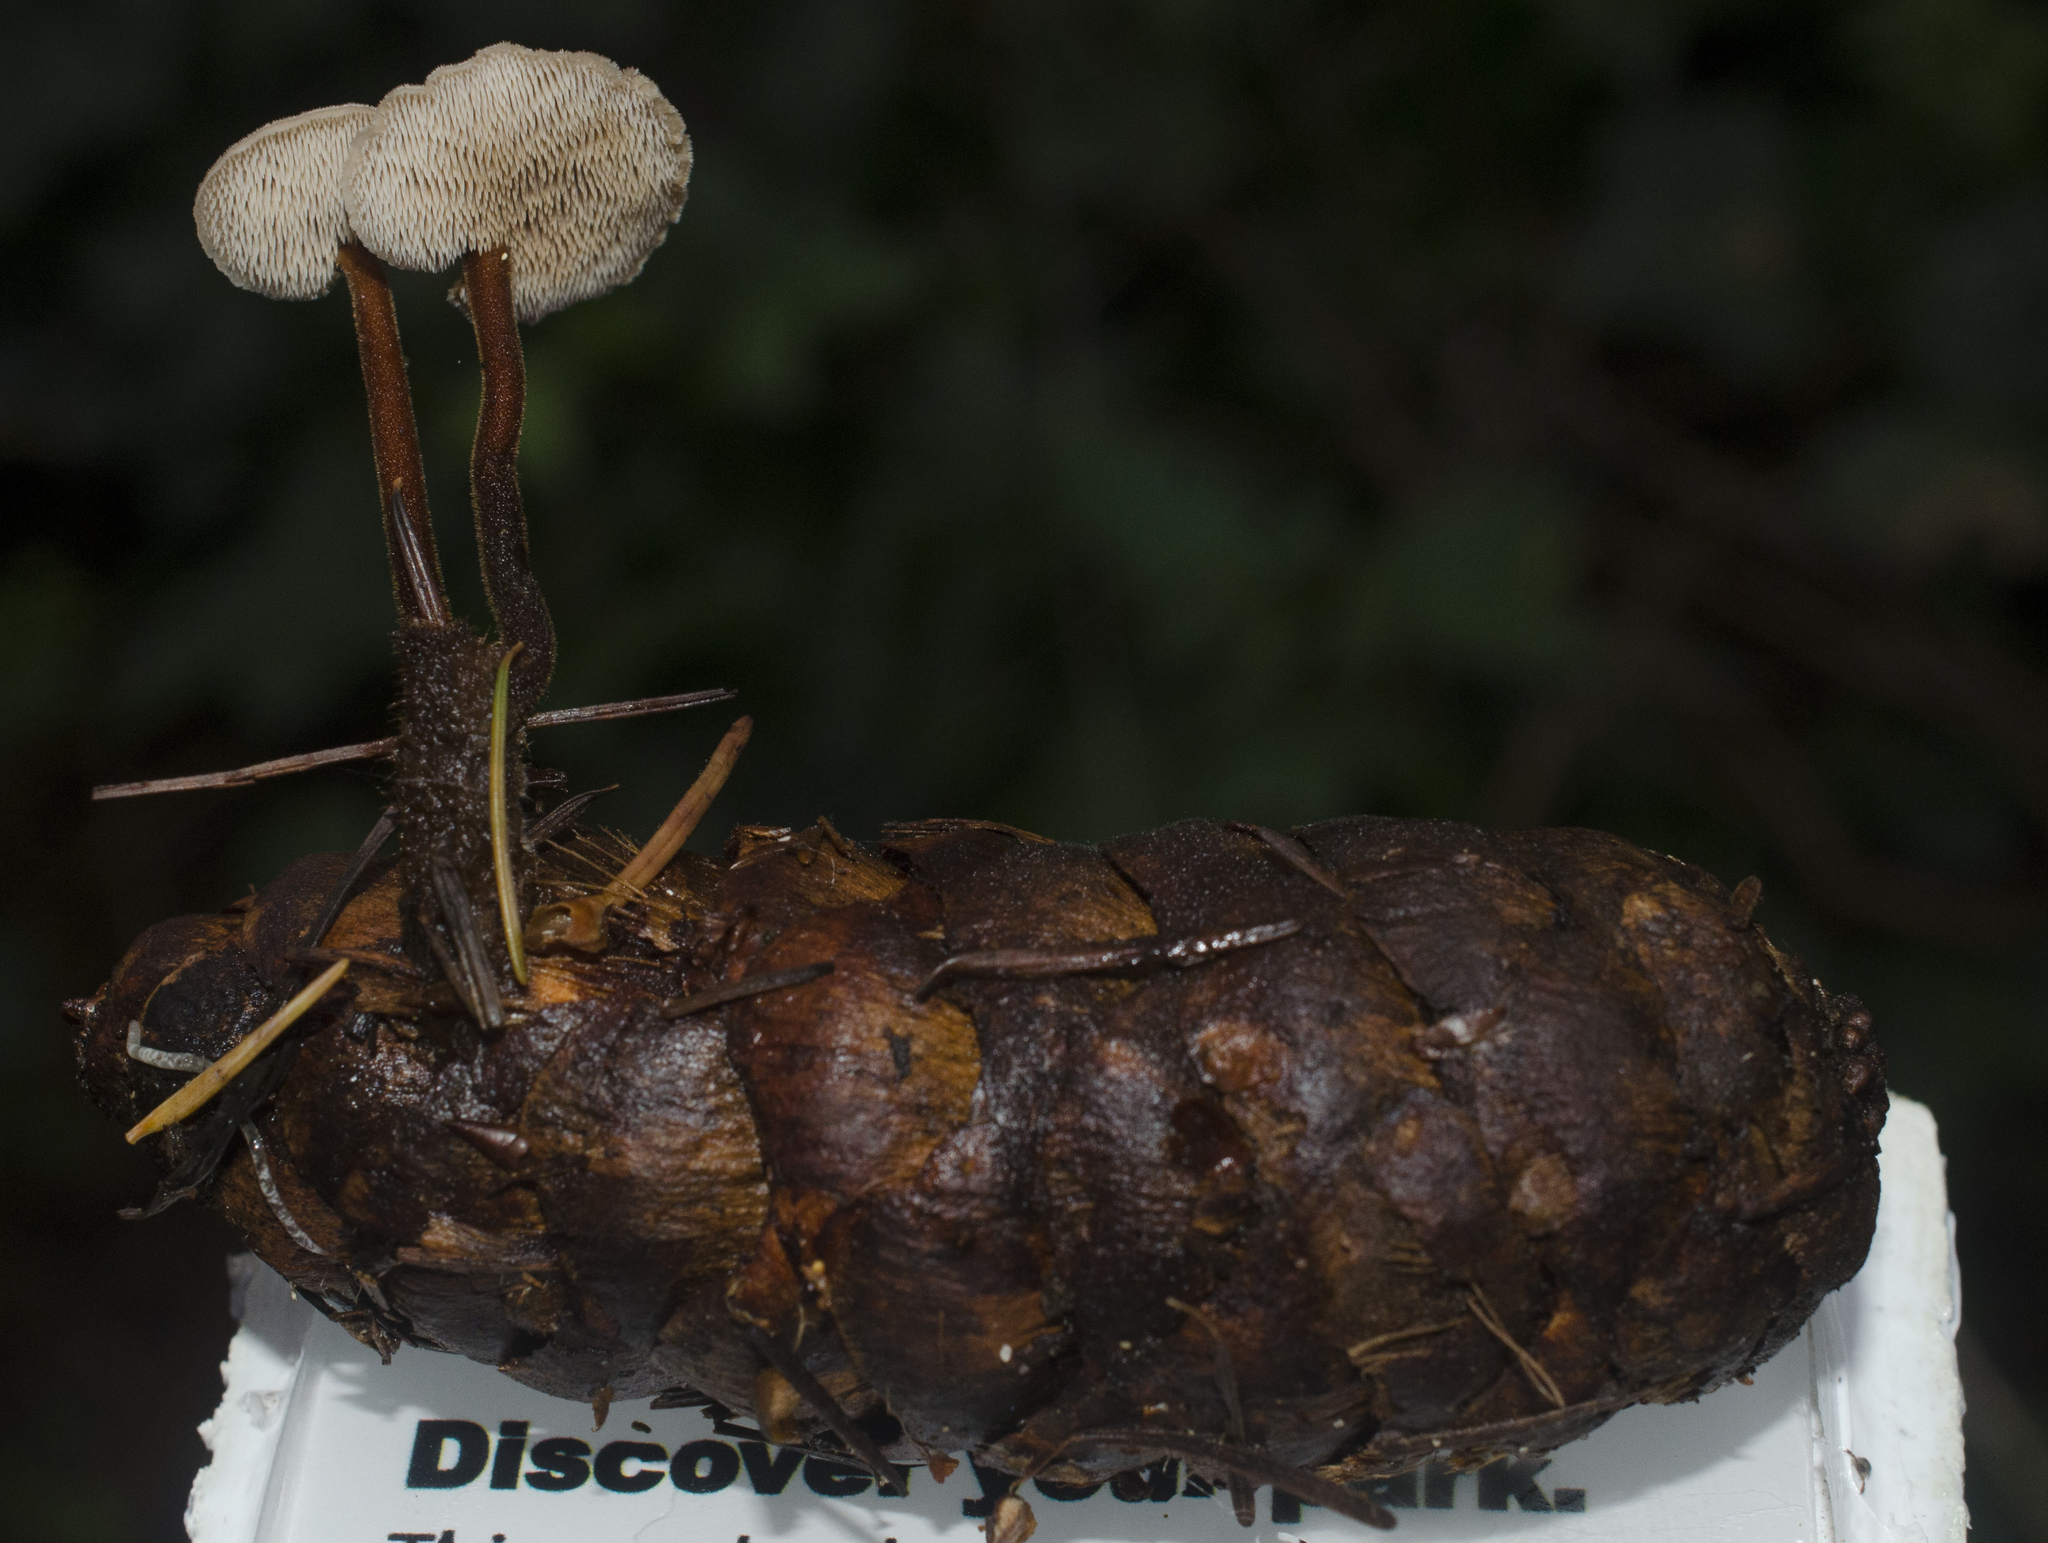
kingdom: Fungi
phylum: Basidiomycota
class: Agaricomycetes
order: Russulales
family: Auriscalpiaceae
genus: Auriscalpium
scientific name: Auriscalpium vulgare
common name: Earpick fungus
